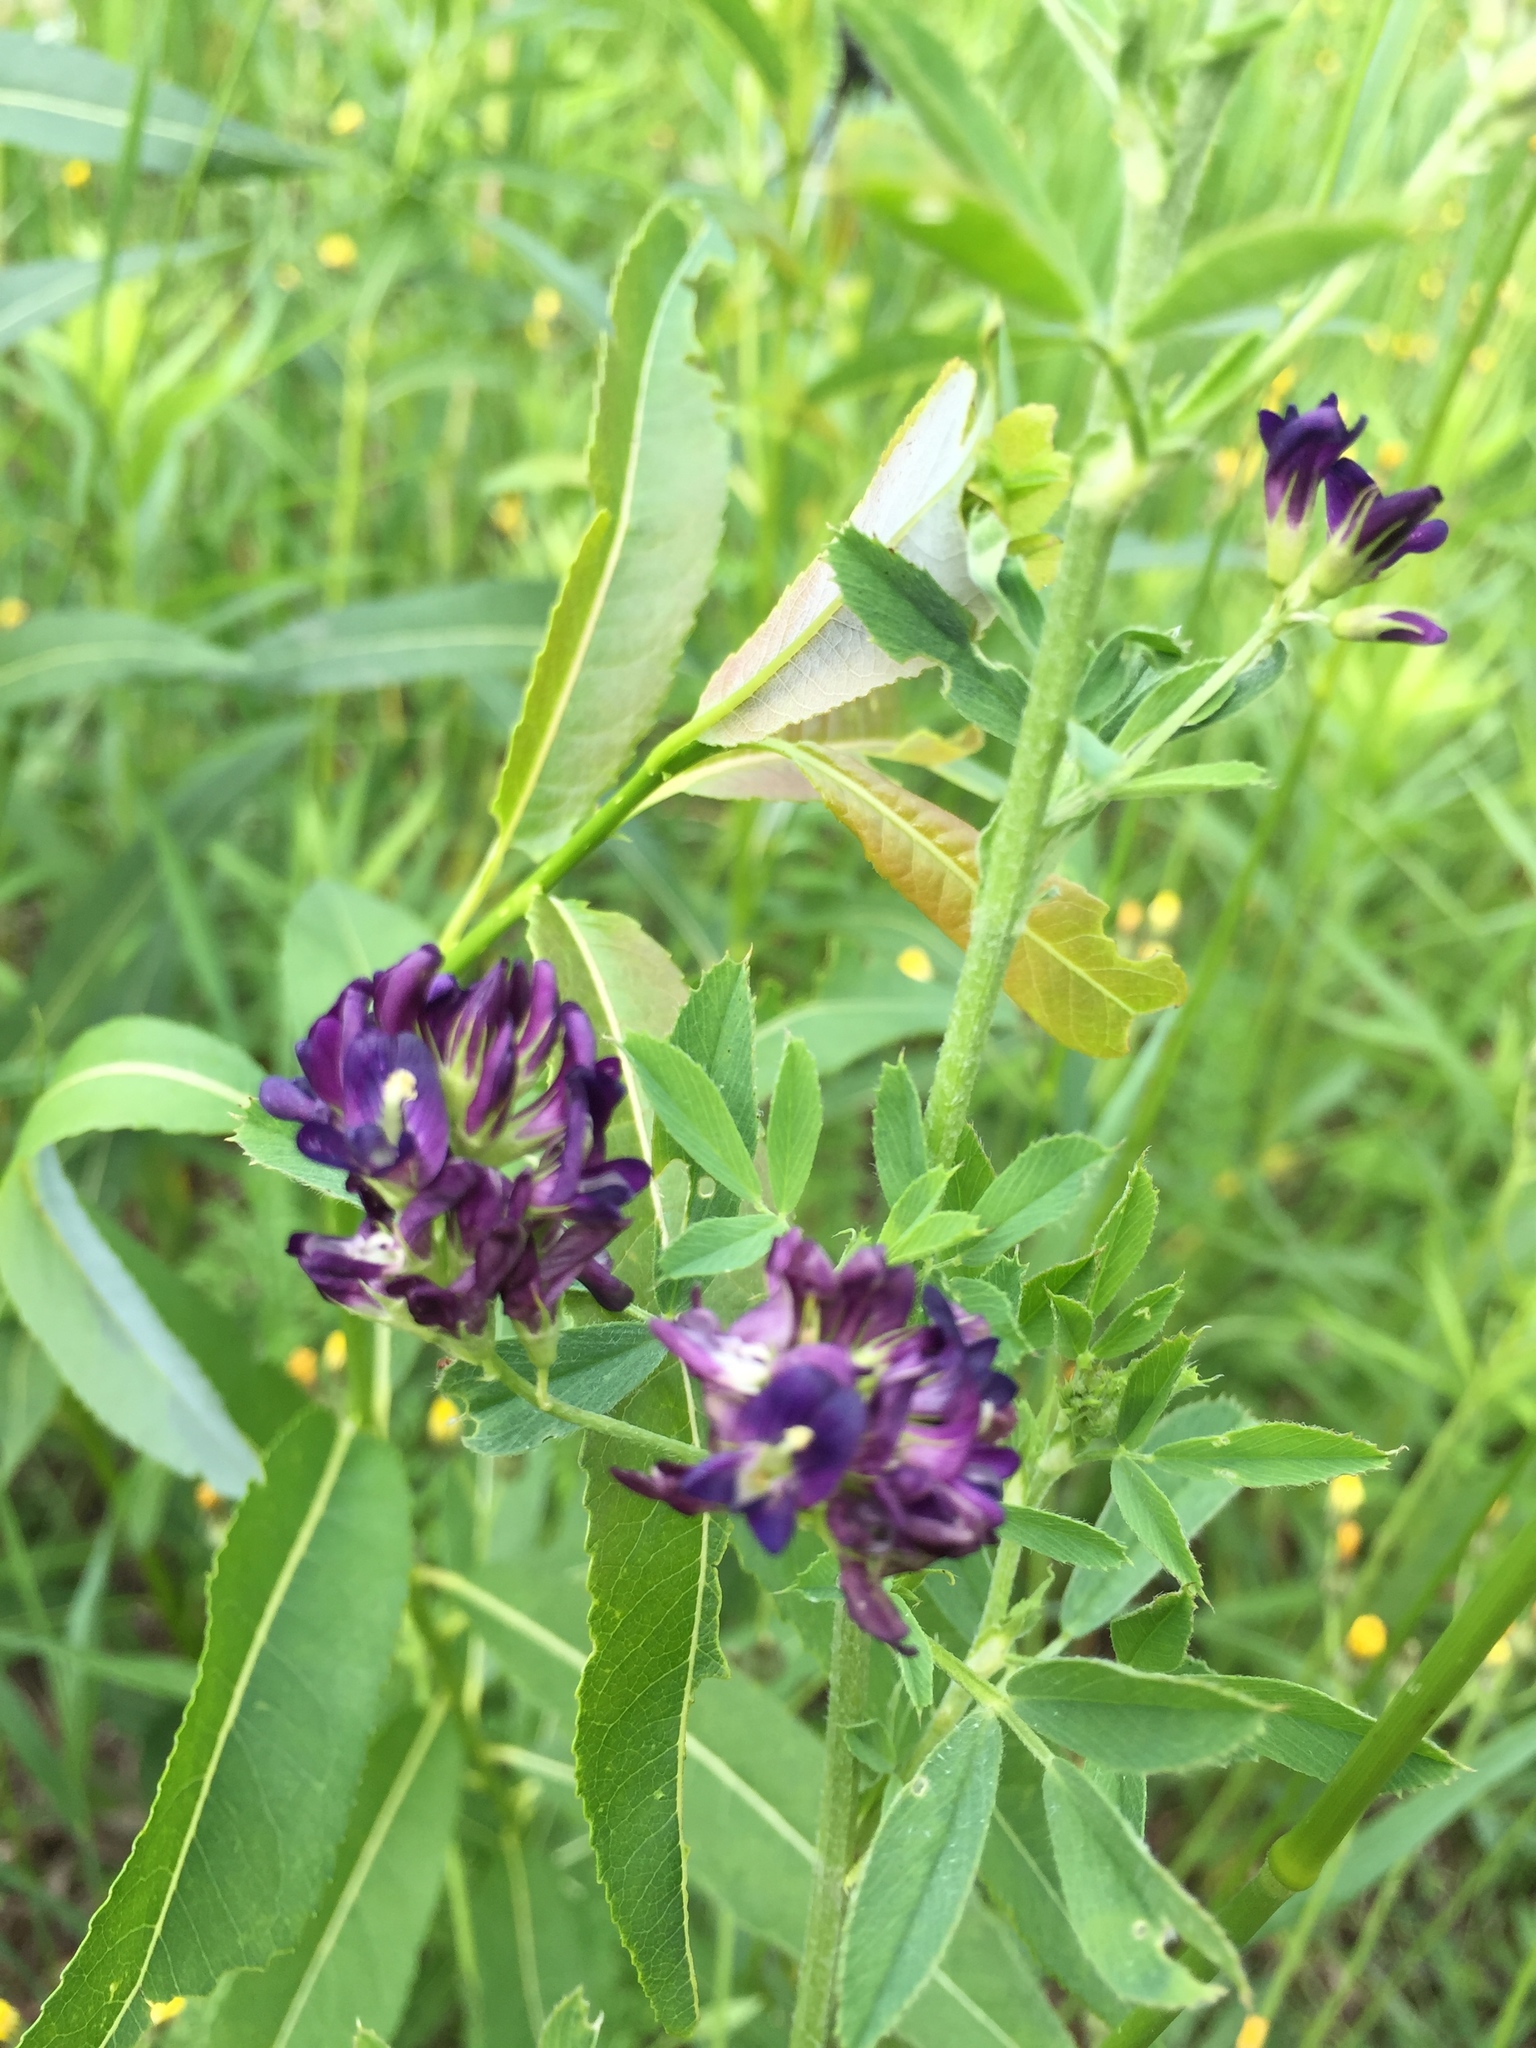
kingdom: Plantae
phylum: Tracheophyta
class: Magnoliopsida
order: Fabales
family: Fabaceae
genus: Medicago
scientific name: Medicago sativa
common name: Alfalfa
